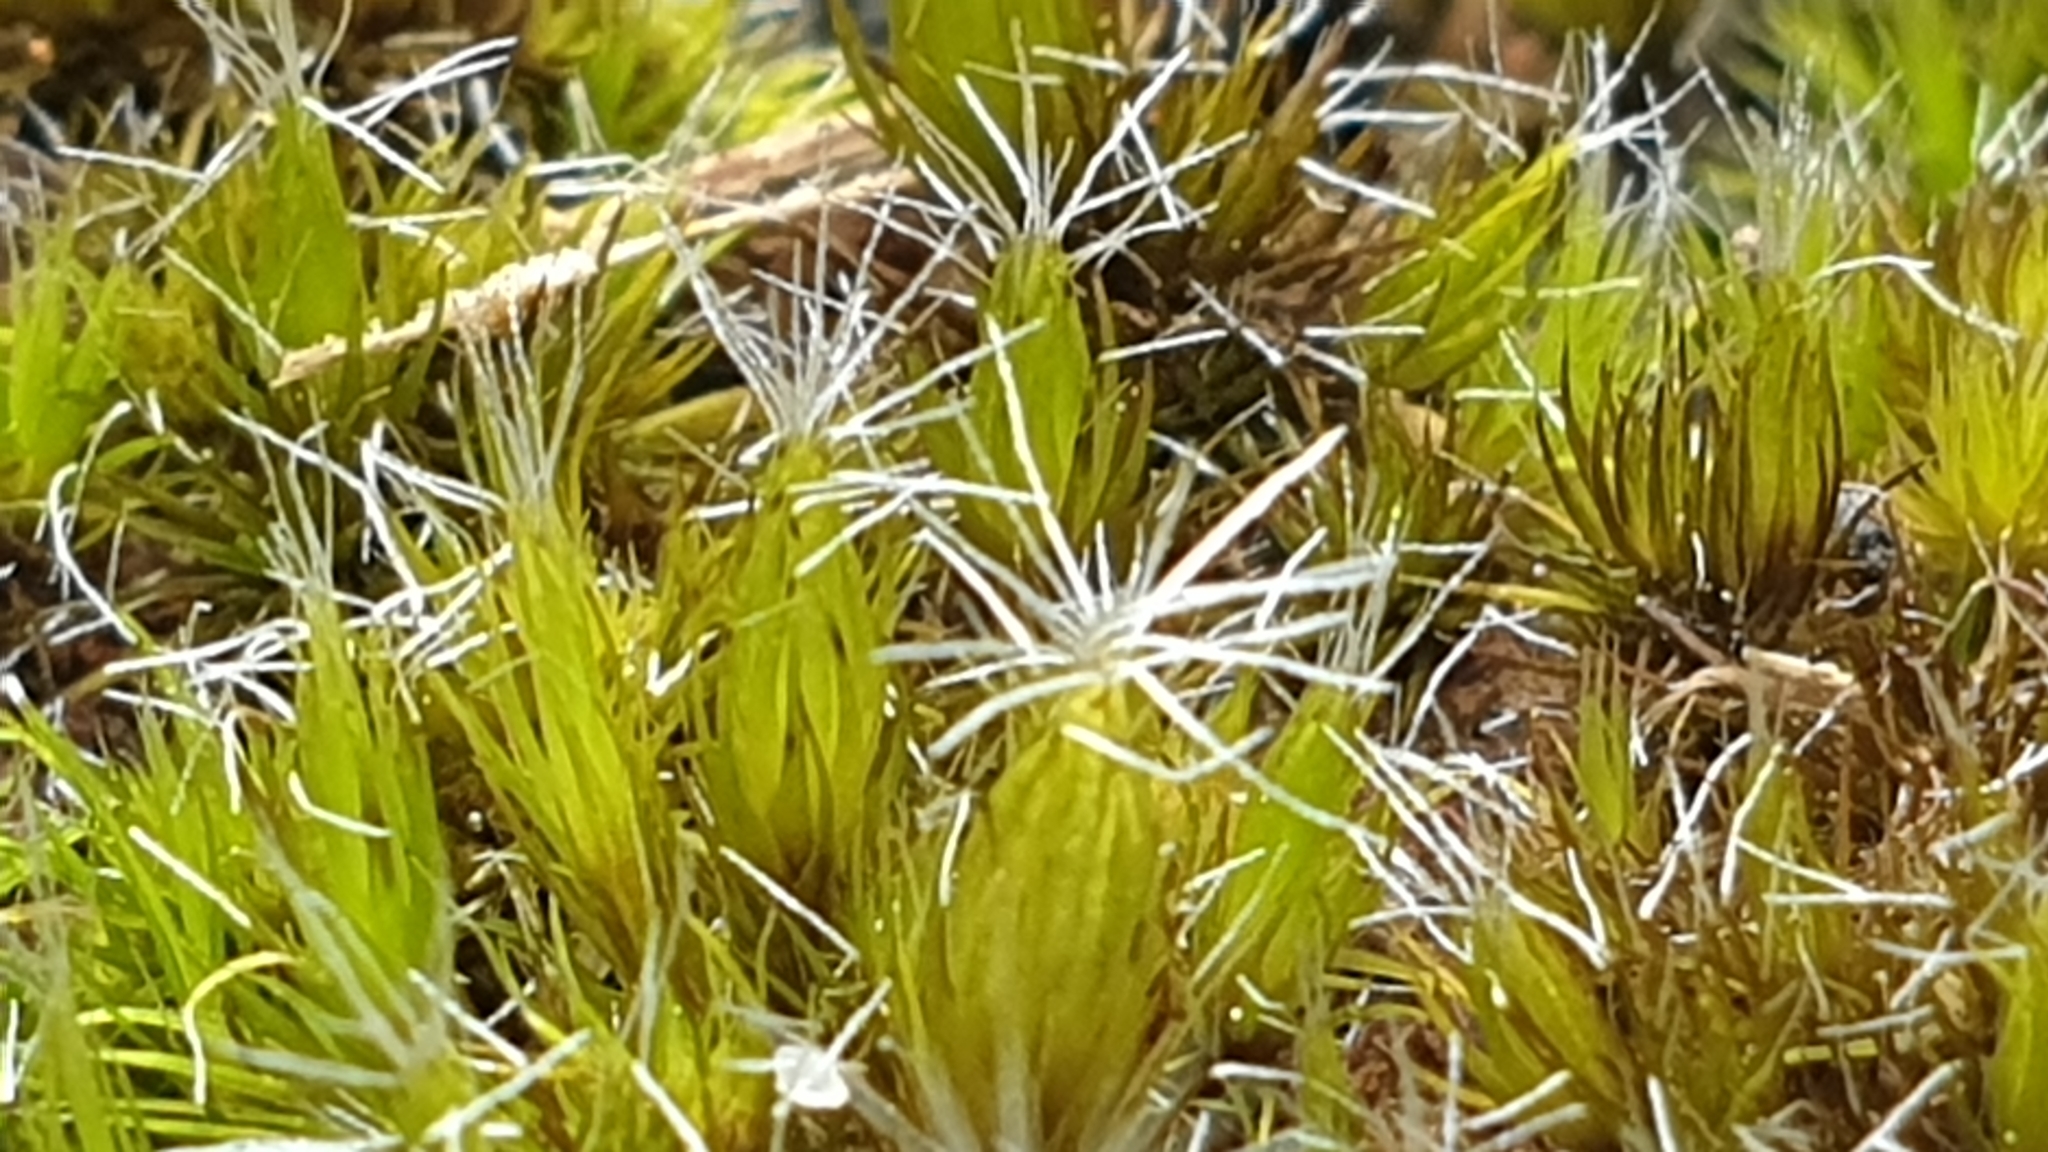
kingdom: Plantae
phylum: Bryophyta
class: Bryopsida
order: Dicranales
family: Leucobryaceae
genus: Campylopus
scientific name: Campylopus introflexus
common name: Heath star moss
